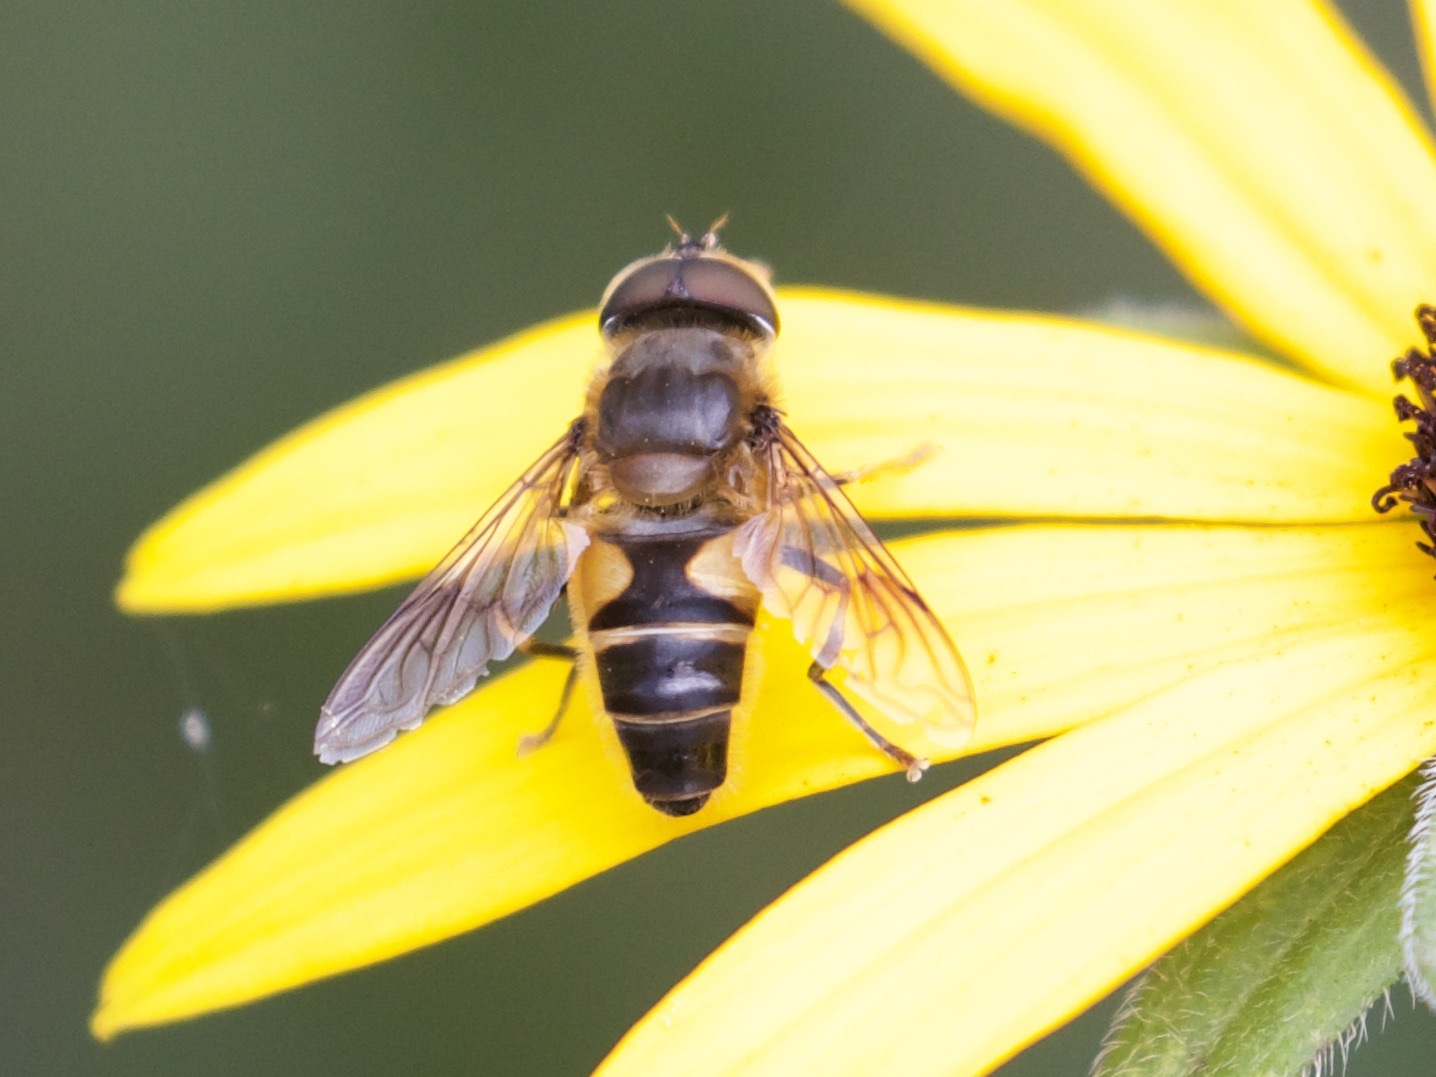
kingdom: Animalia
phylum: Arthropoda
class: Insecta
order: Diptera
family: Syrphidae
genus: Eristalis
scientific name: Eristalis pertinax
